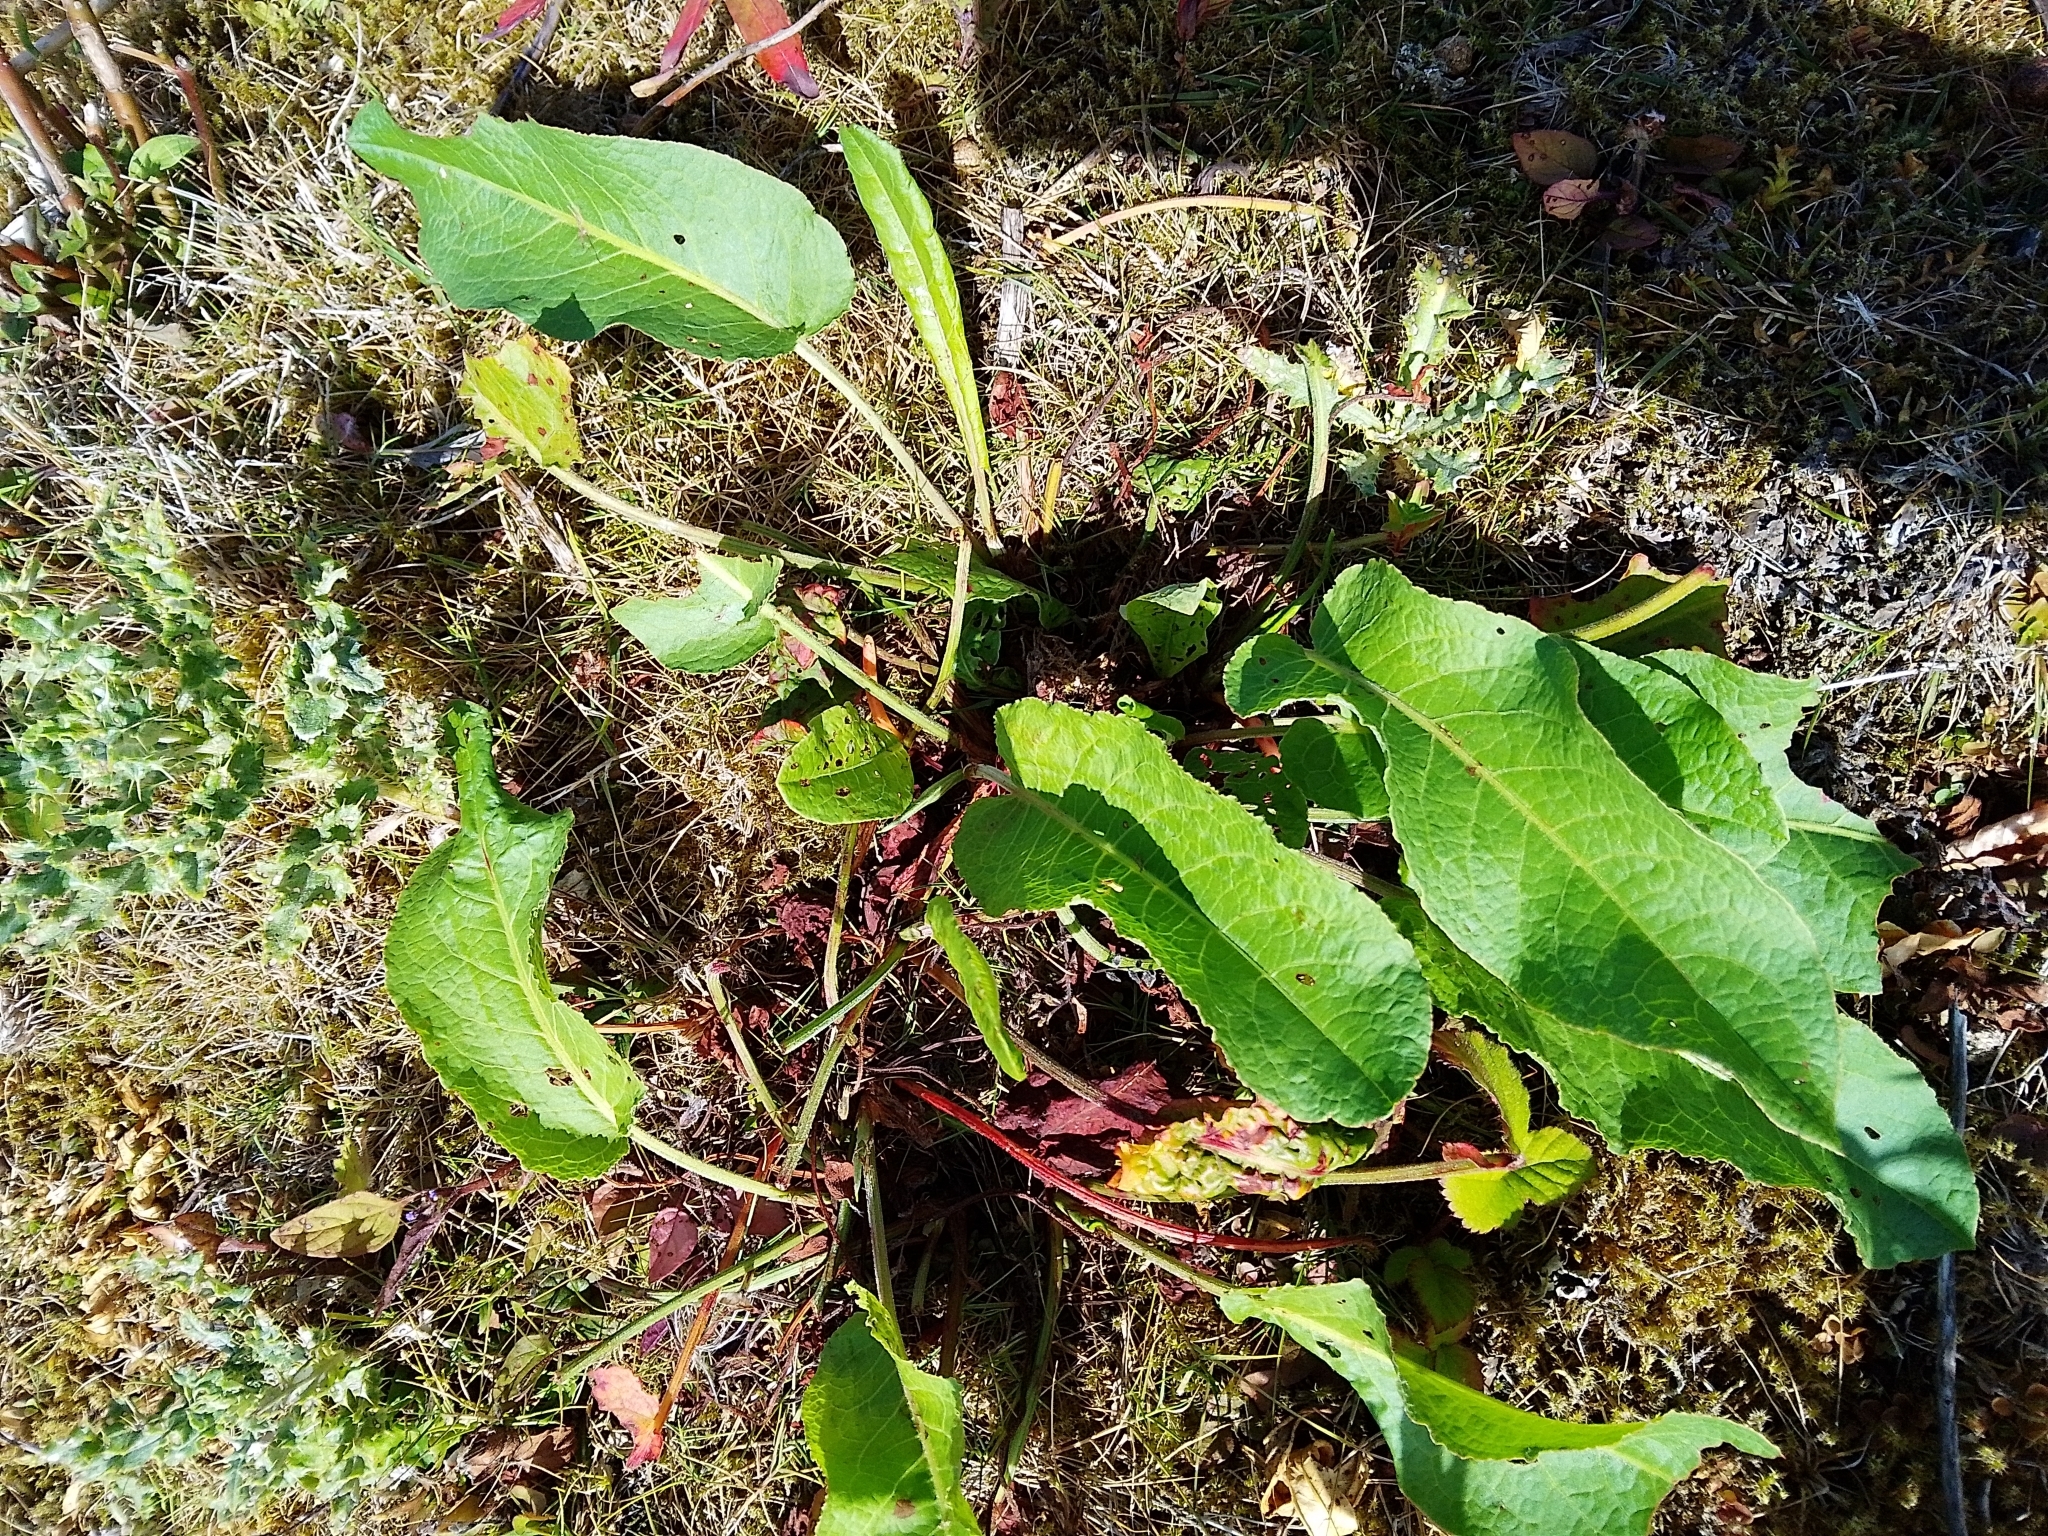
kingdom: Plantae
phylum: Tracheophyta
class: Magnoliopsida
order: Caryophyllales
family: Polygonaceae
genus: Rumex
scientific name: Rumex obtusifolius
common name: Bitter dock
